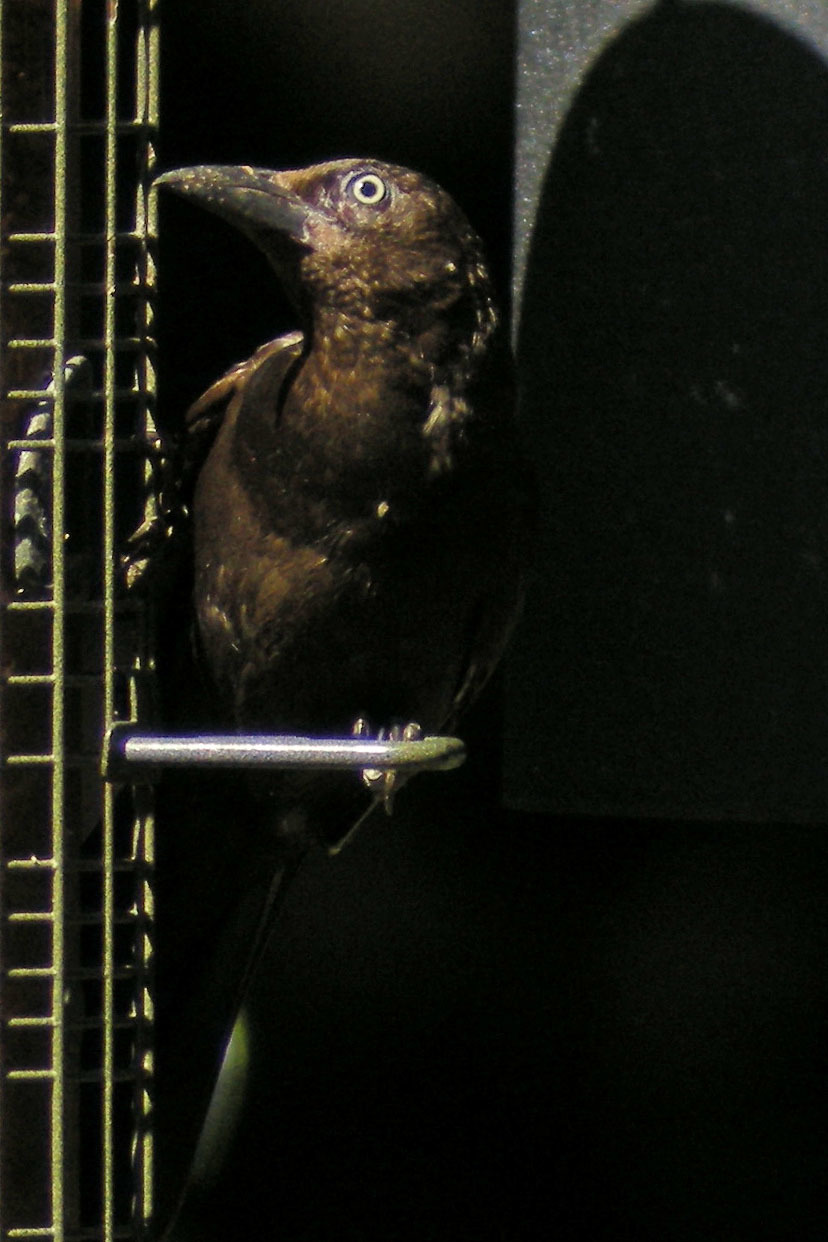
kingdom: Animalia
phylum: Chordata
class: Aves
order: Passeriformes
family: Icteridae
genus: Quiscalus
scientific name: Quiscalus quiscula
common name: Common grackle
